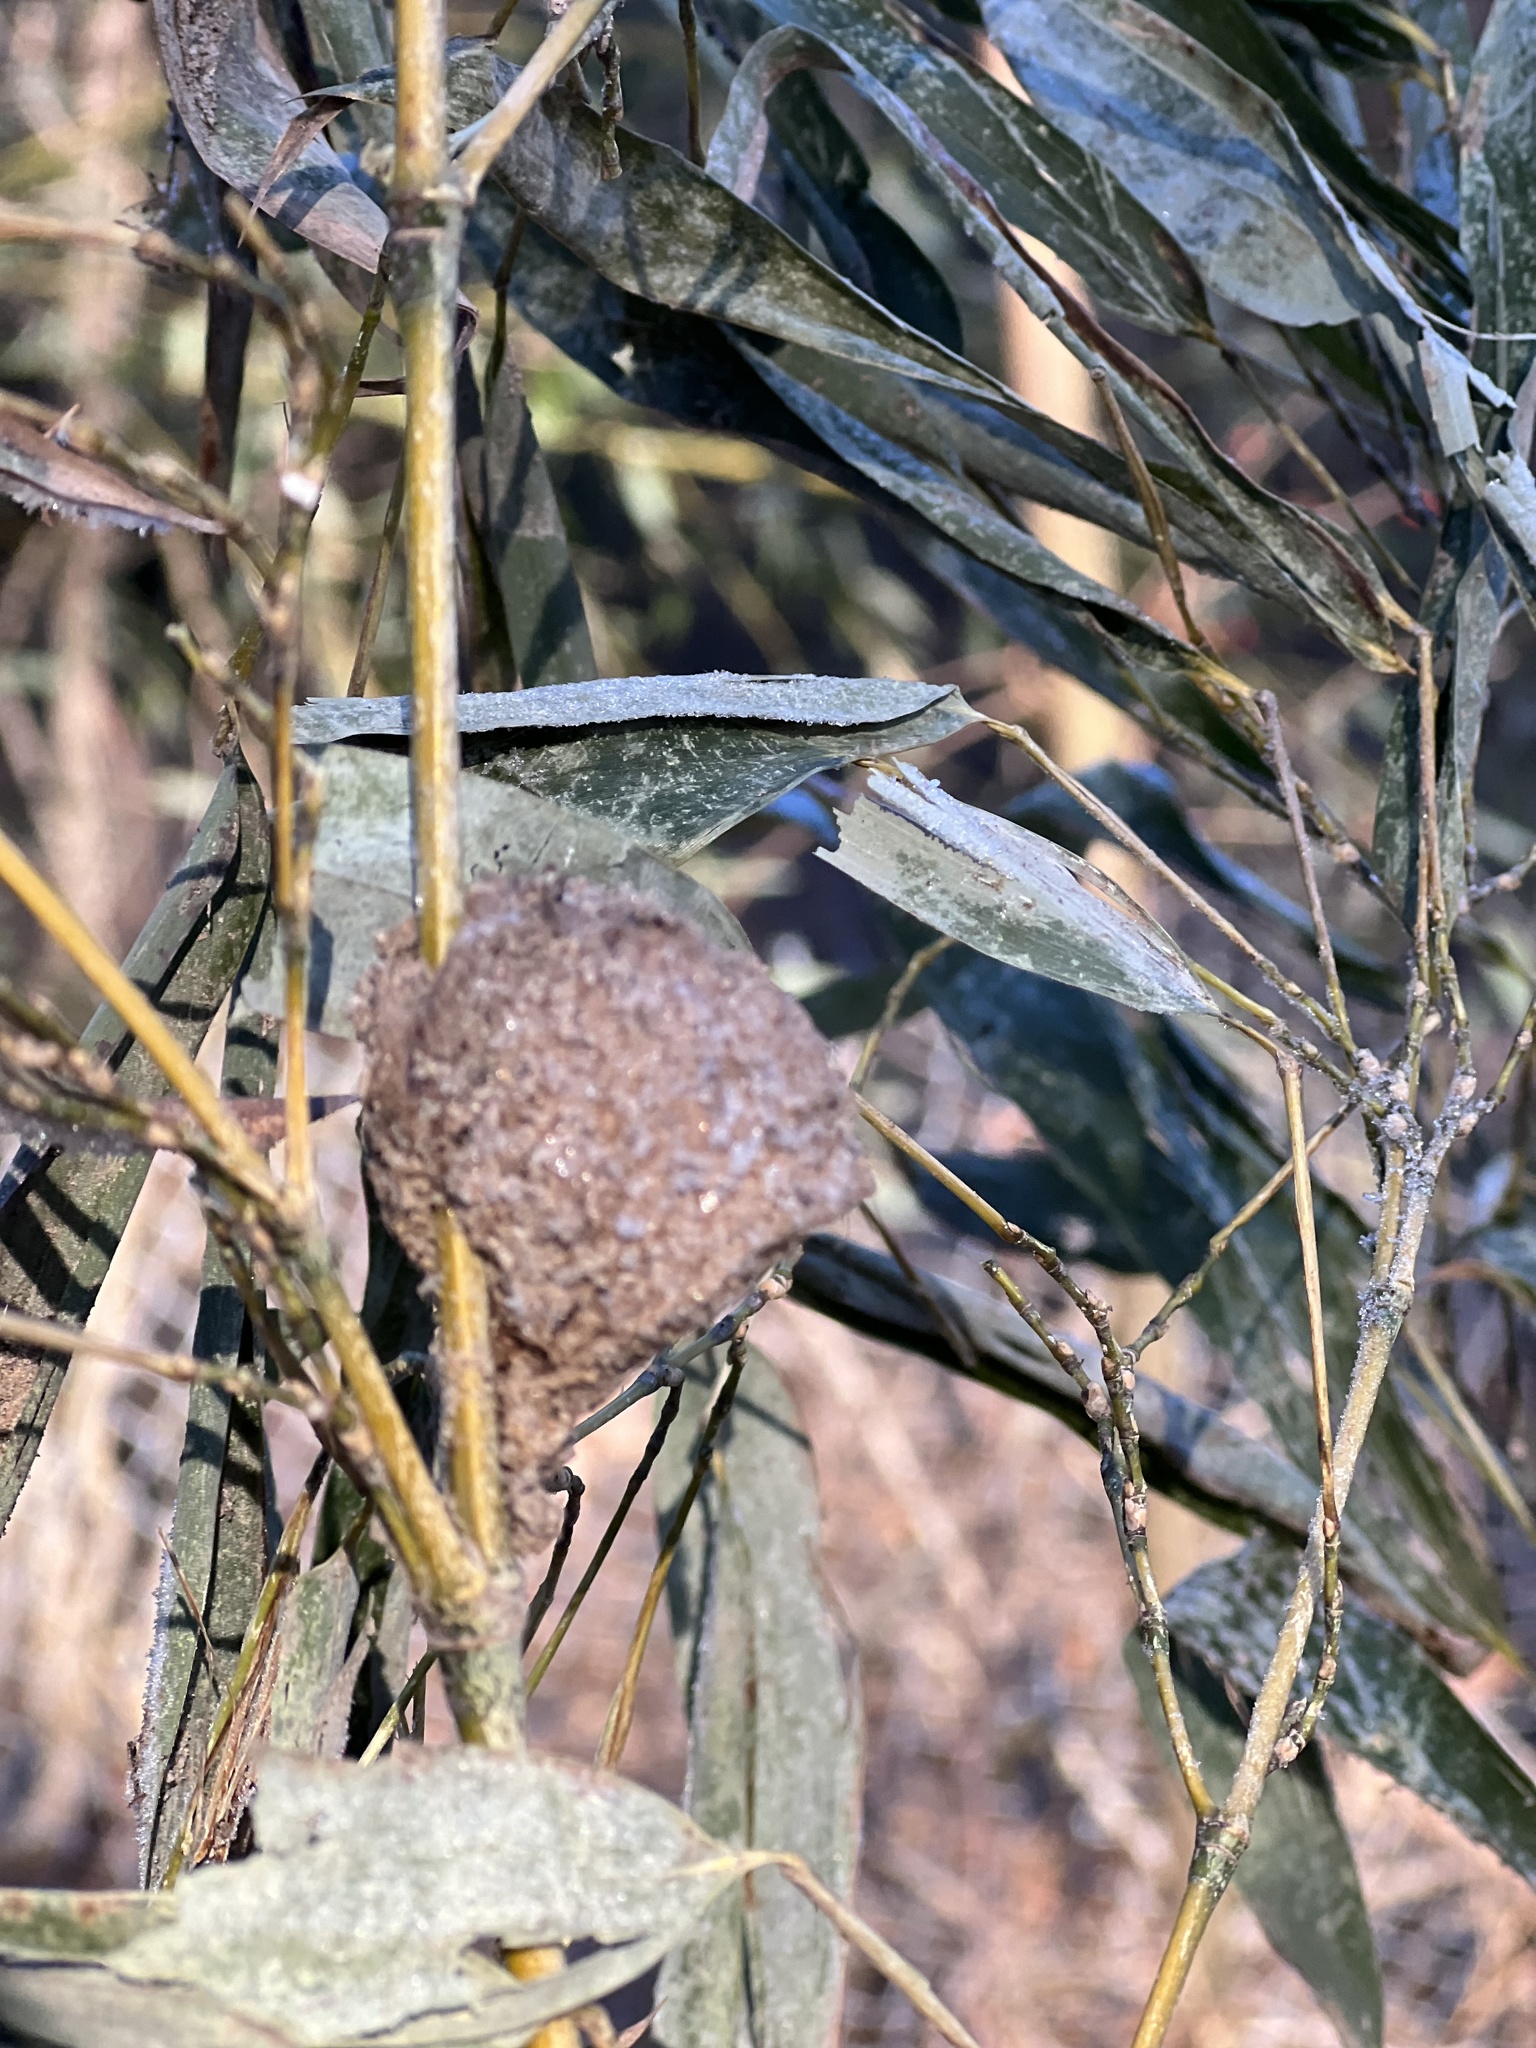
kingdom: Animalia
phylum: Arthropoda
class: Insecta
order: Mantodea
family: Mantidae
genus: Tenodera
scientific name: Tenodera sinensis
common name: Chinese mantis
